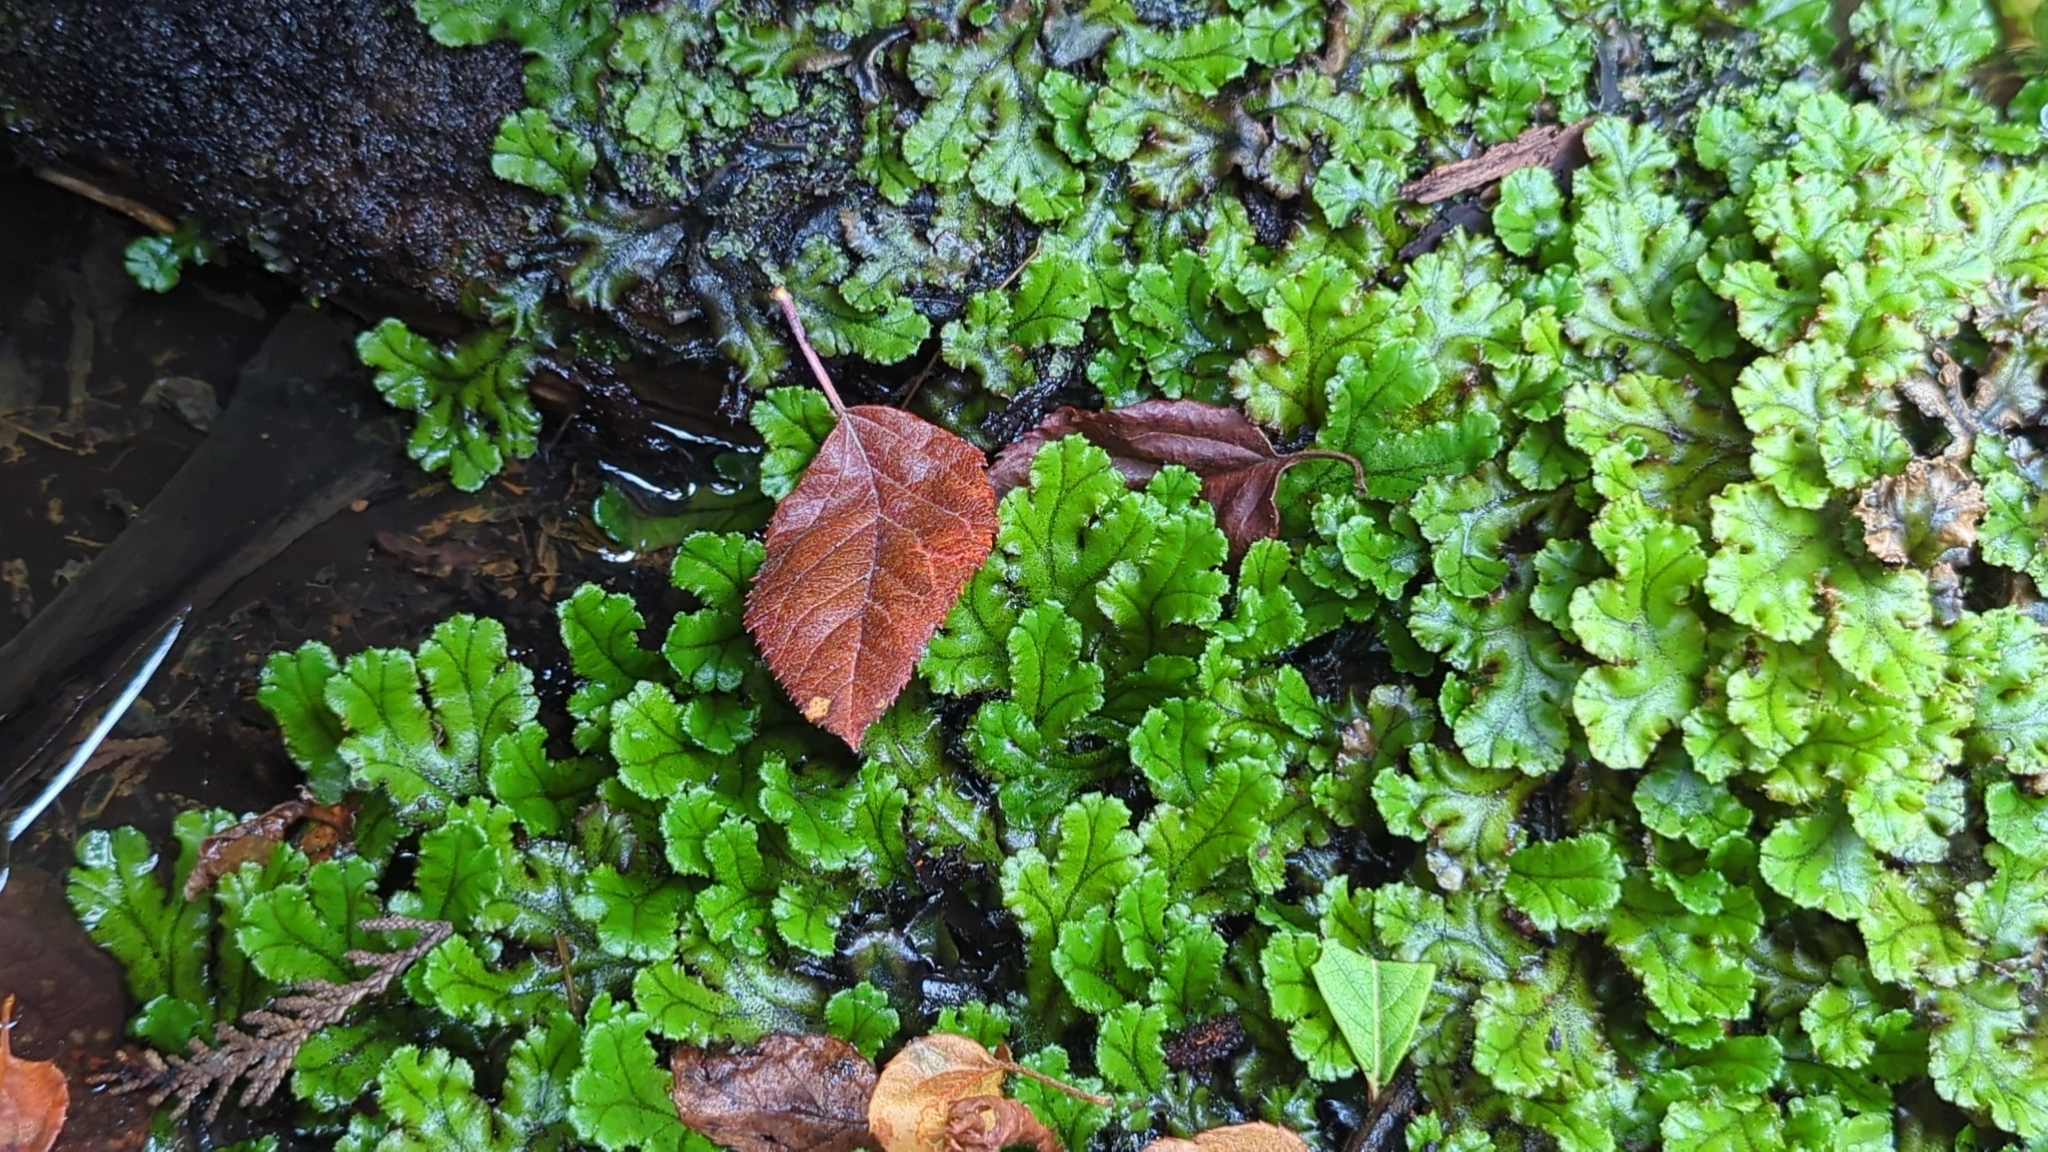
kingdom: Plantae
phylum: Marchantiophyta
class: Marchantiopsida
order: Marchantiales
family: Marchantiaceae
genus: Marchantia
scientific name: Marchantia polymorpha
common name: Common liverwort
